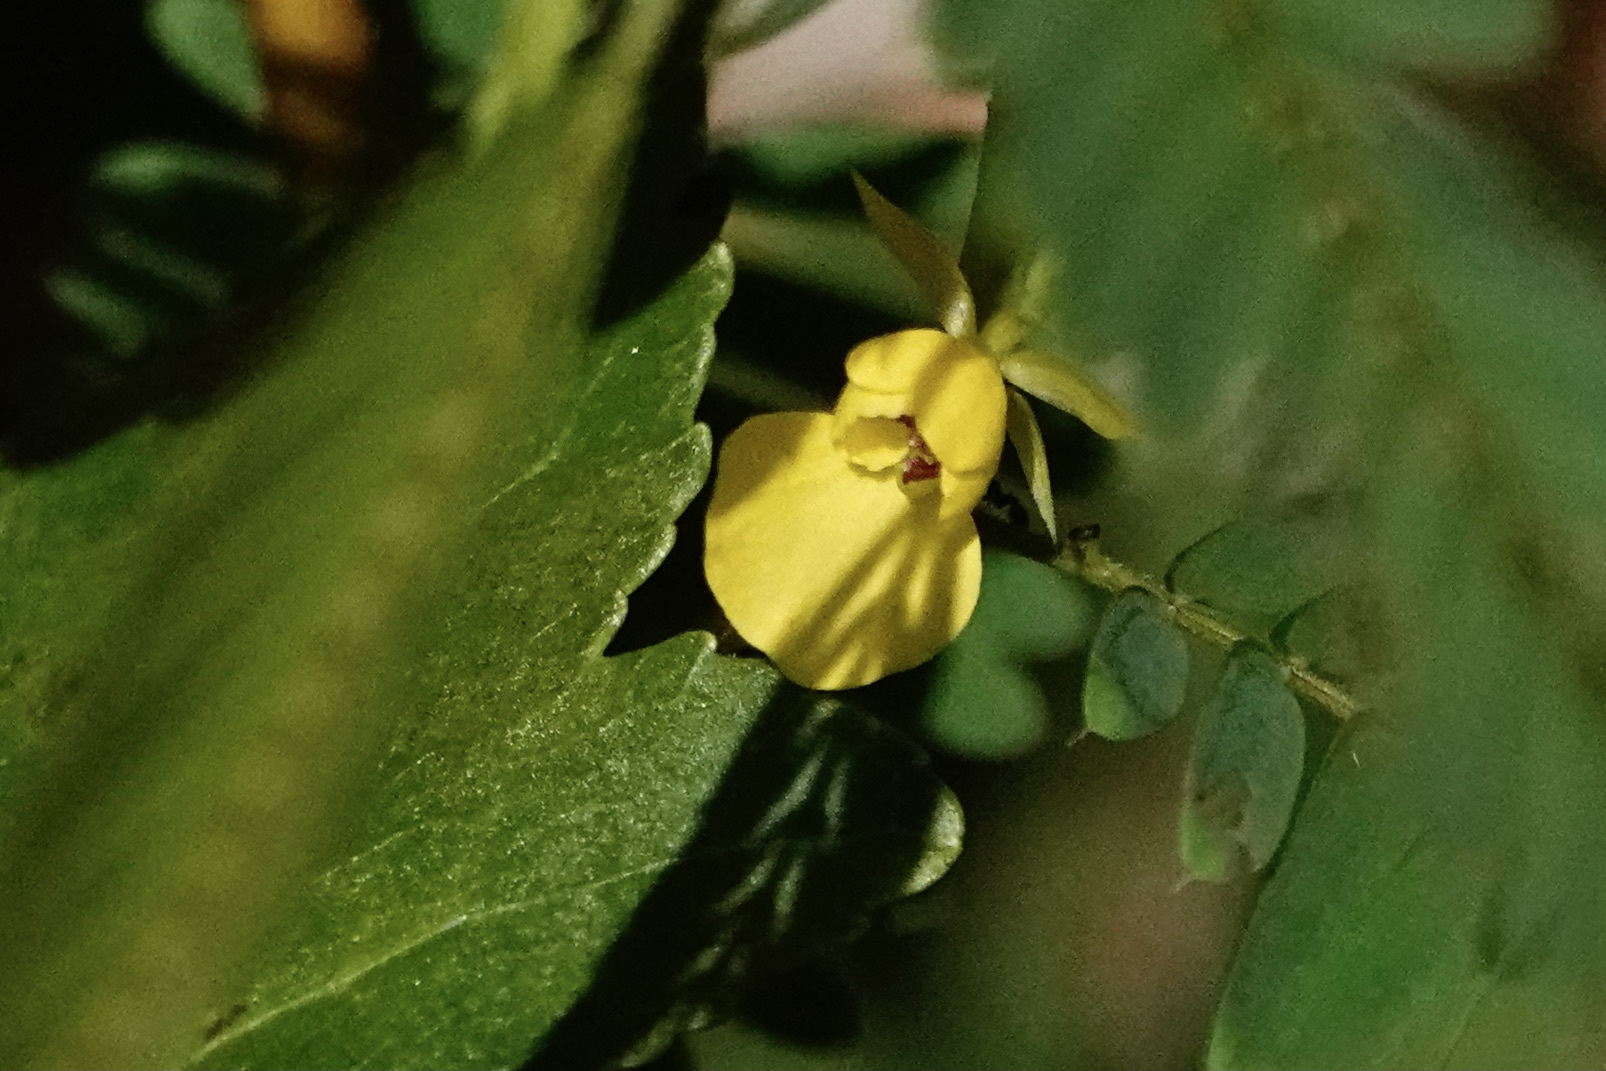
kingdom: Plantae
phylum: Tracheophyta
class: Magnoliopsida
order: Fabales
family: Fabaceae
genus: Chamaecrista
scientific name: Chamaecrista nictitans
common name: Sensitive cassia
